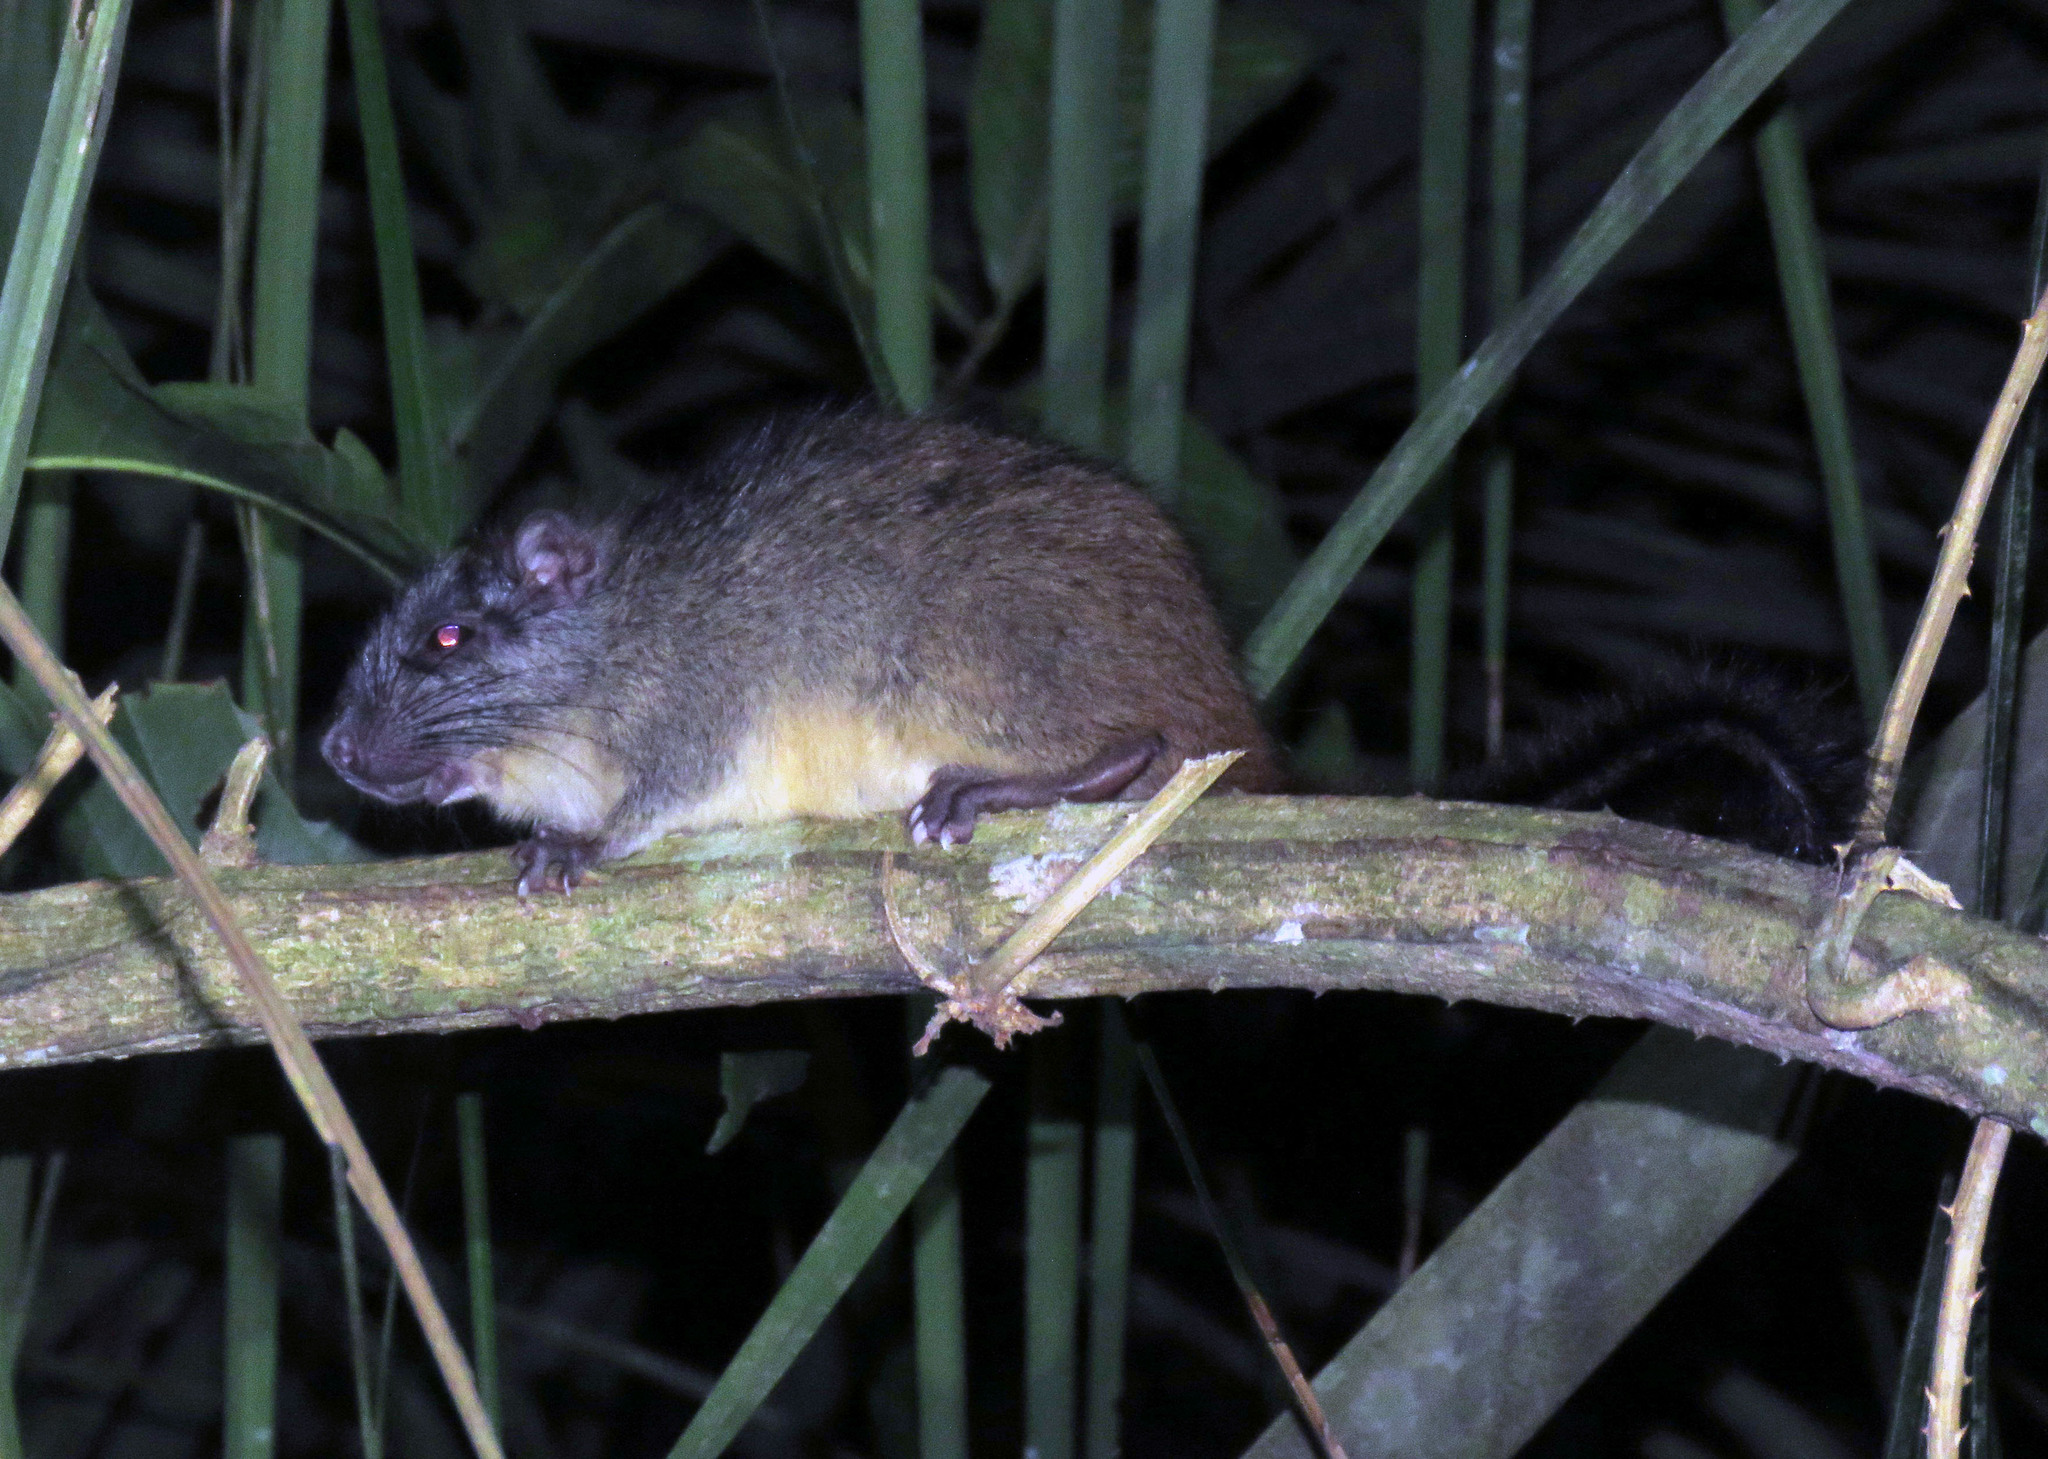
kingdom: Animalia
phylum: Chordata
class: Mammalia
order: Rodentia
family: Echimyidae
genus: Isothrix
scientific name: Isothrix bistriata
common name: Yellow-crowned brush-tailed rat
